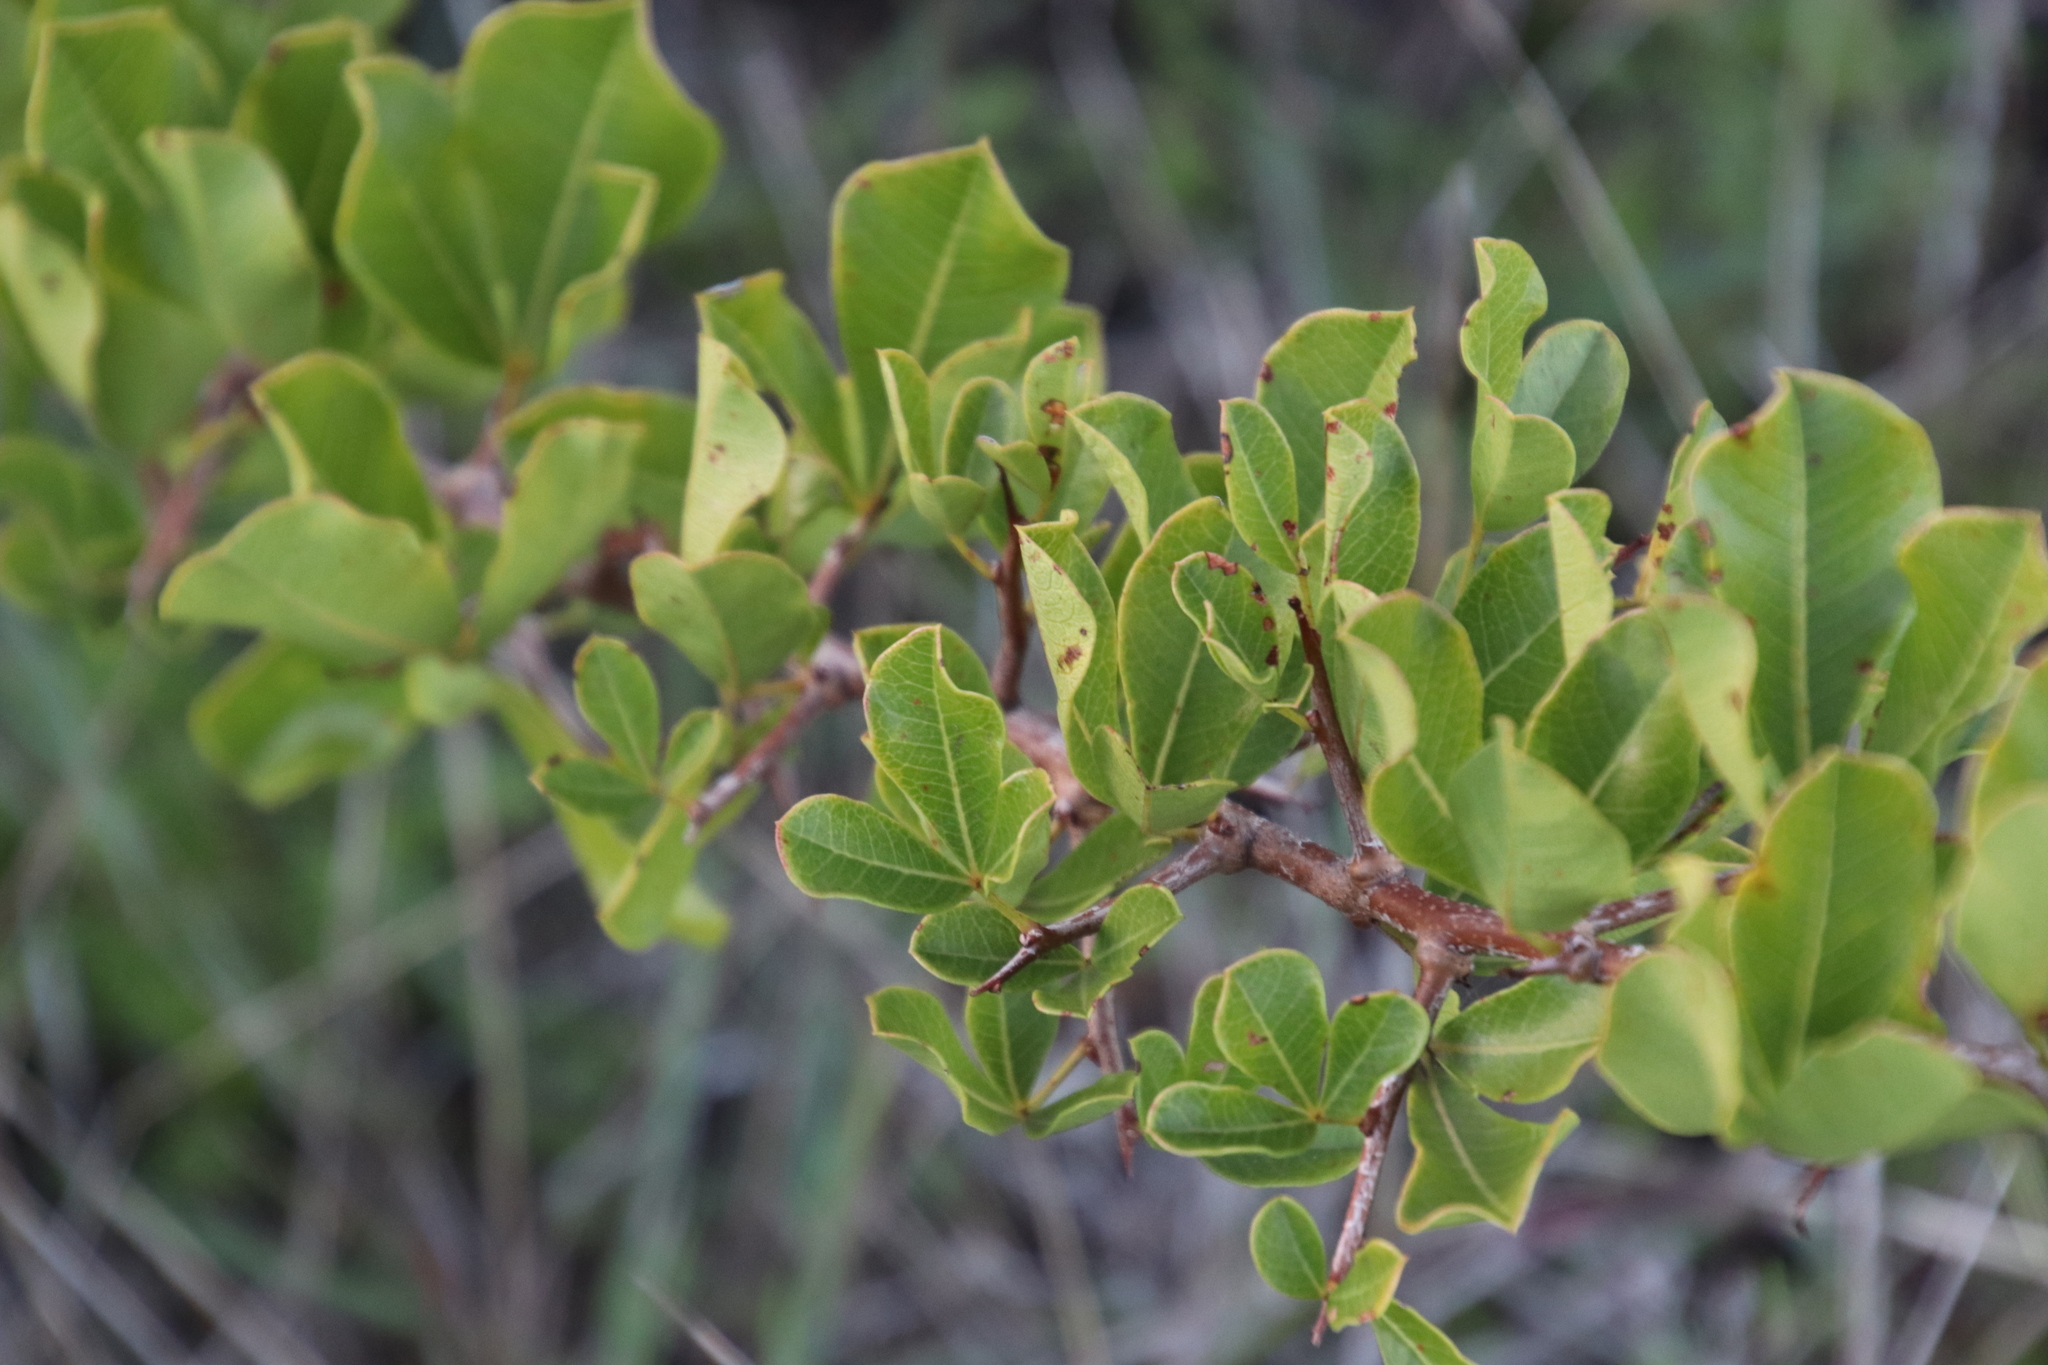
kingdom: Plantae
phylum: Tracheophyta
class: Magnoliopsida
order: Sapindales
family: Anacardiaceae
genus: Searsia
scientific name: Searsia laevigata
